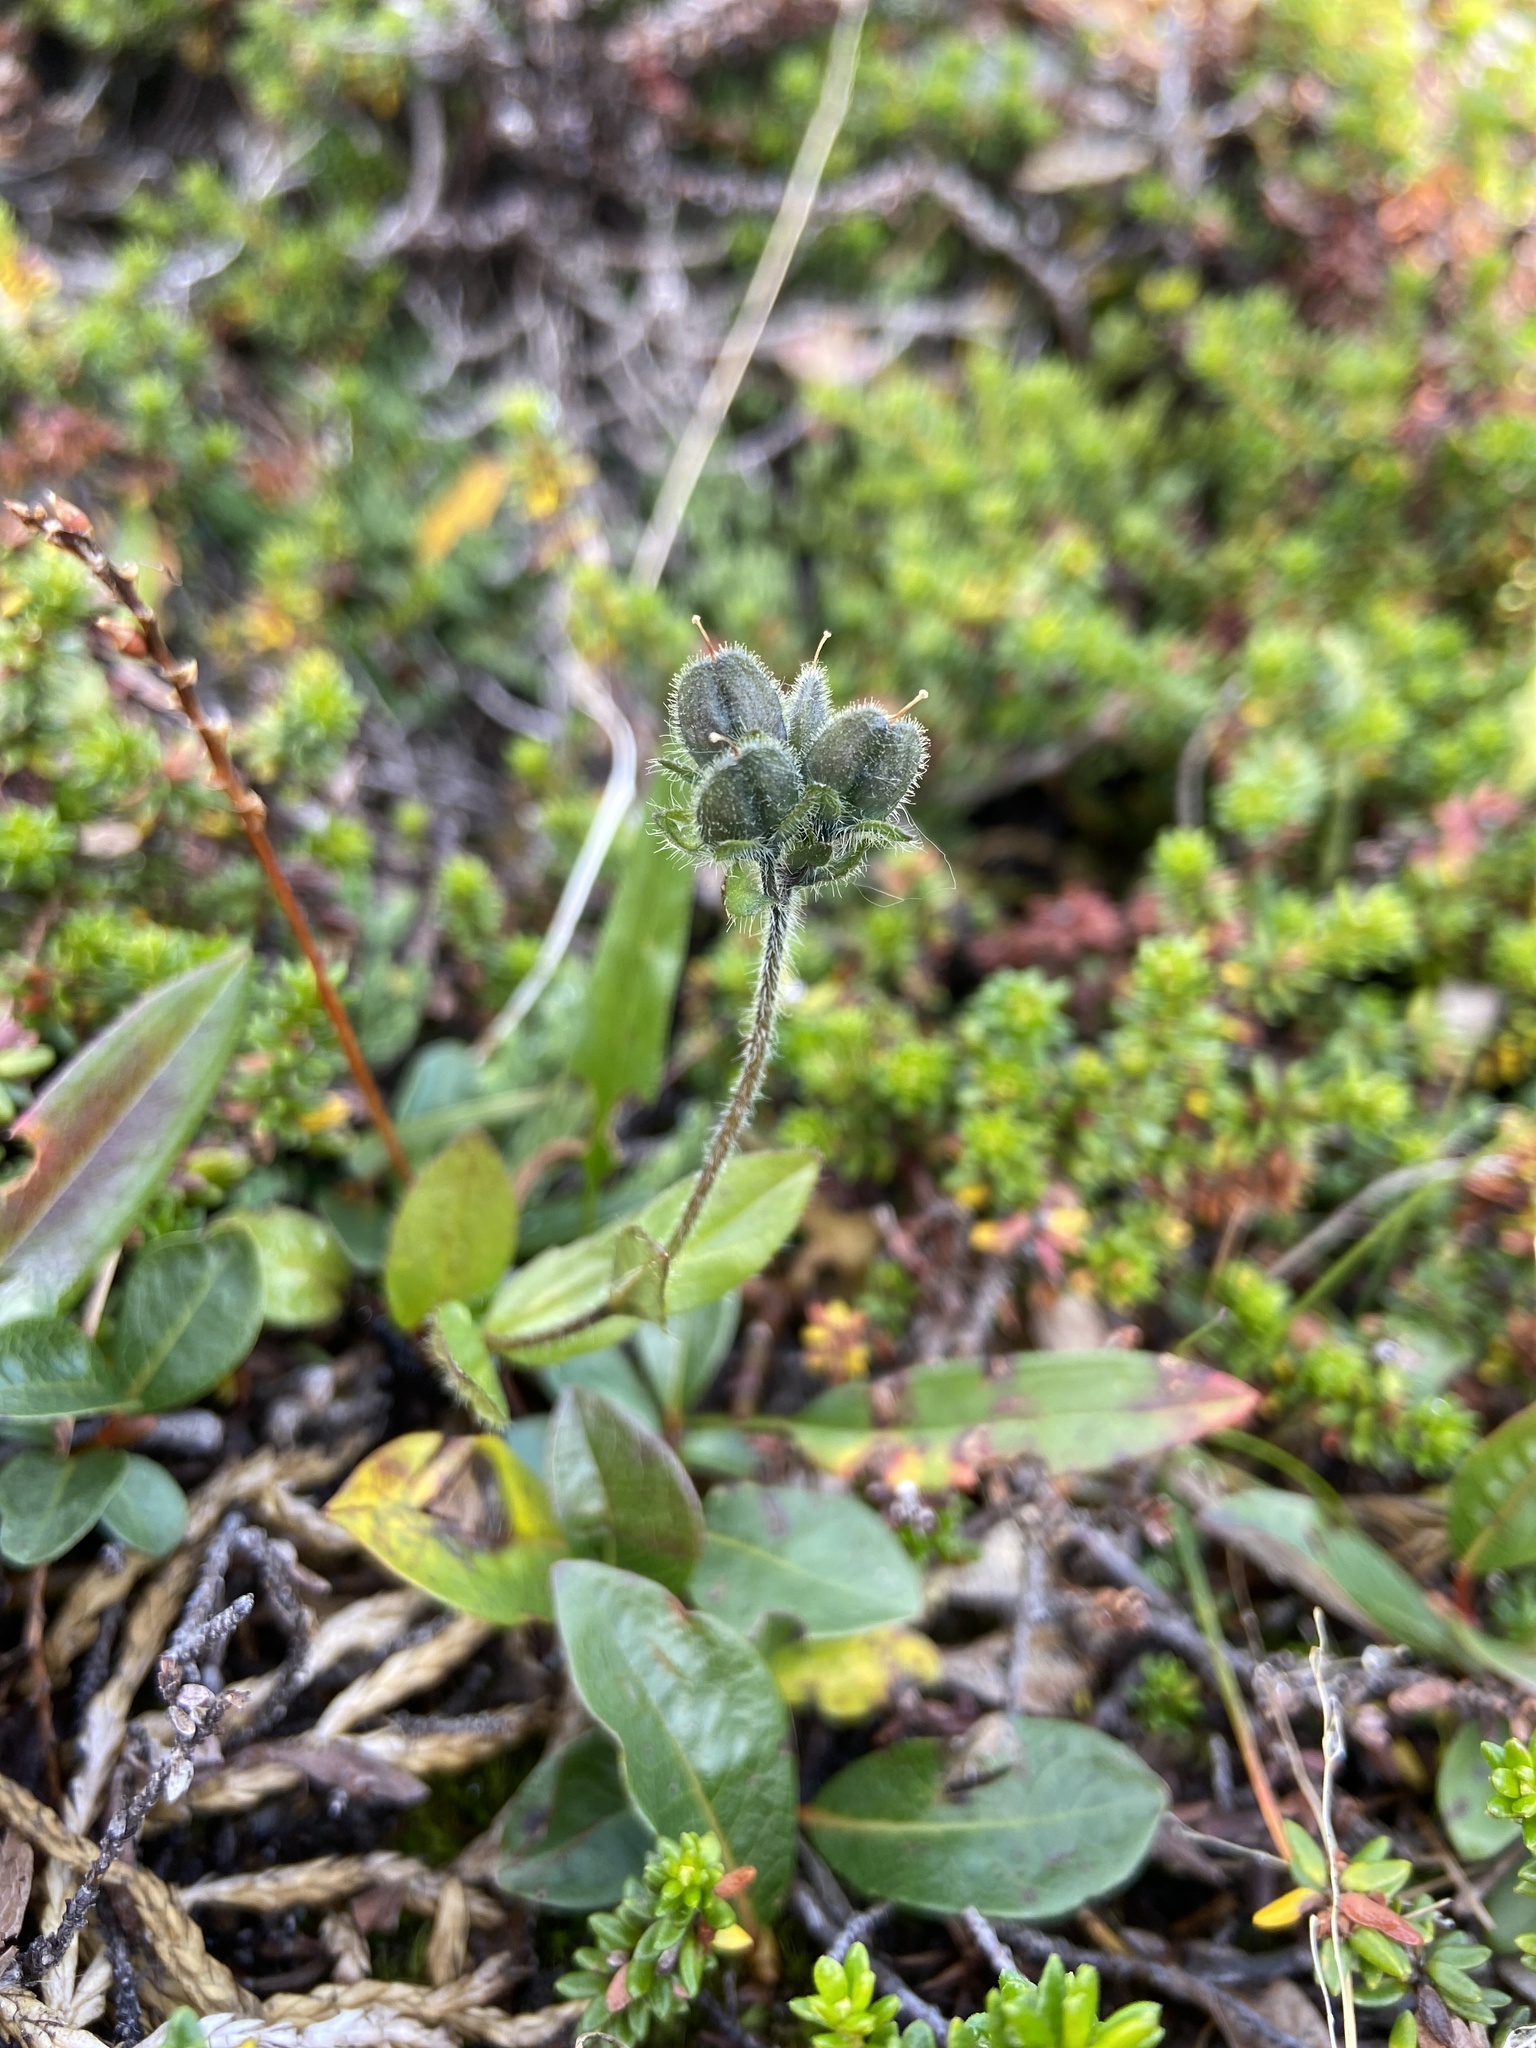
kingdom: Plantae
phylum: Tracheophyta
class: Magnoliopsida
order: Lamiales
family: Plantaginaceae
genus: Veronica
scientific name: Veronica wormskjoldii
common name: American alpine speedwell
